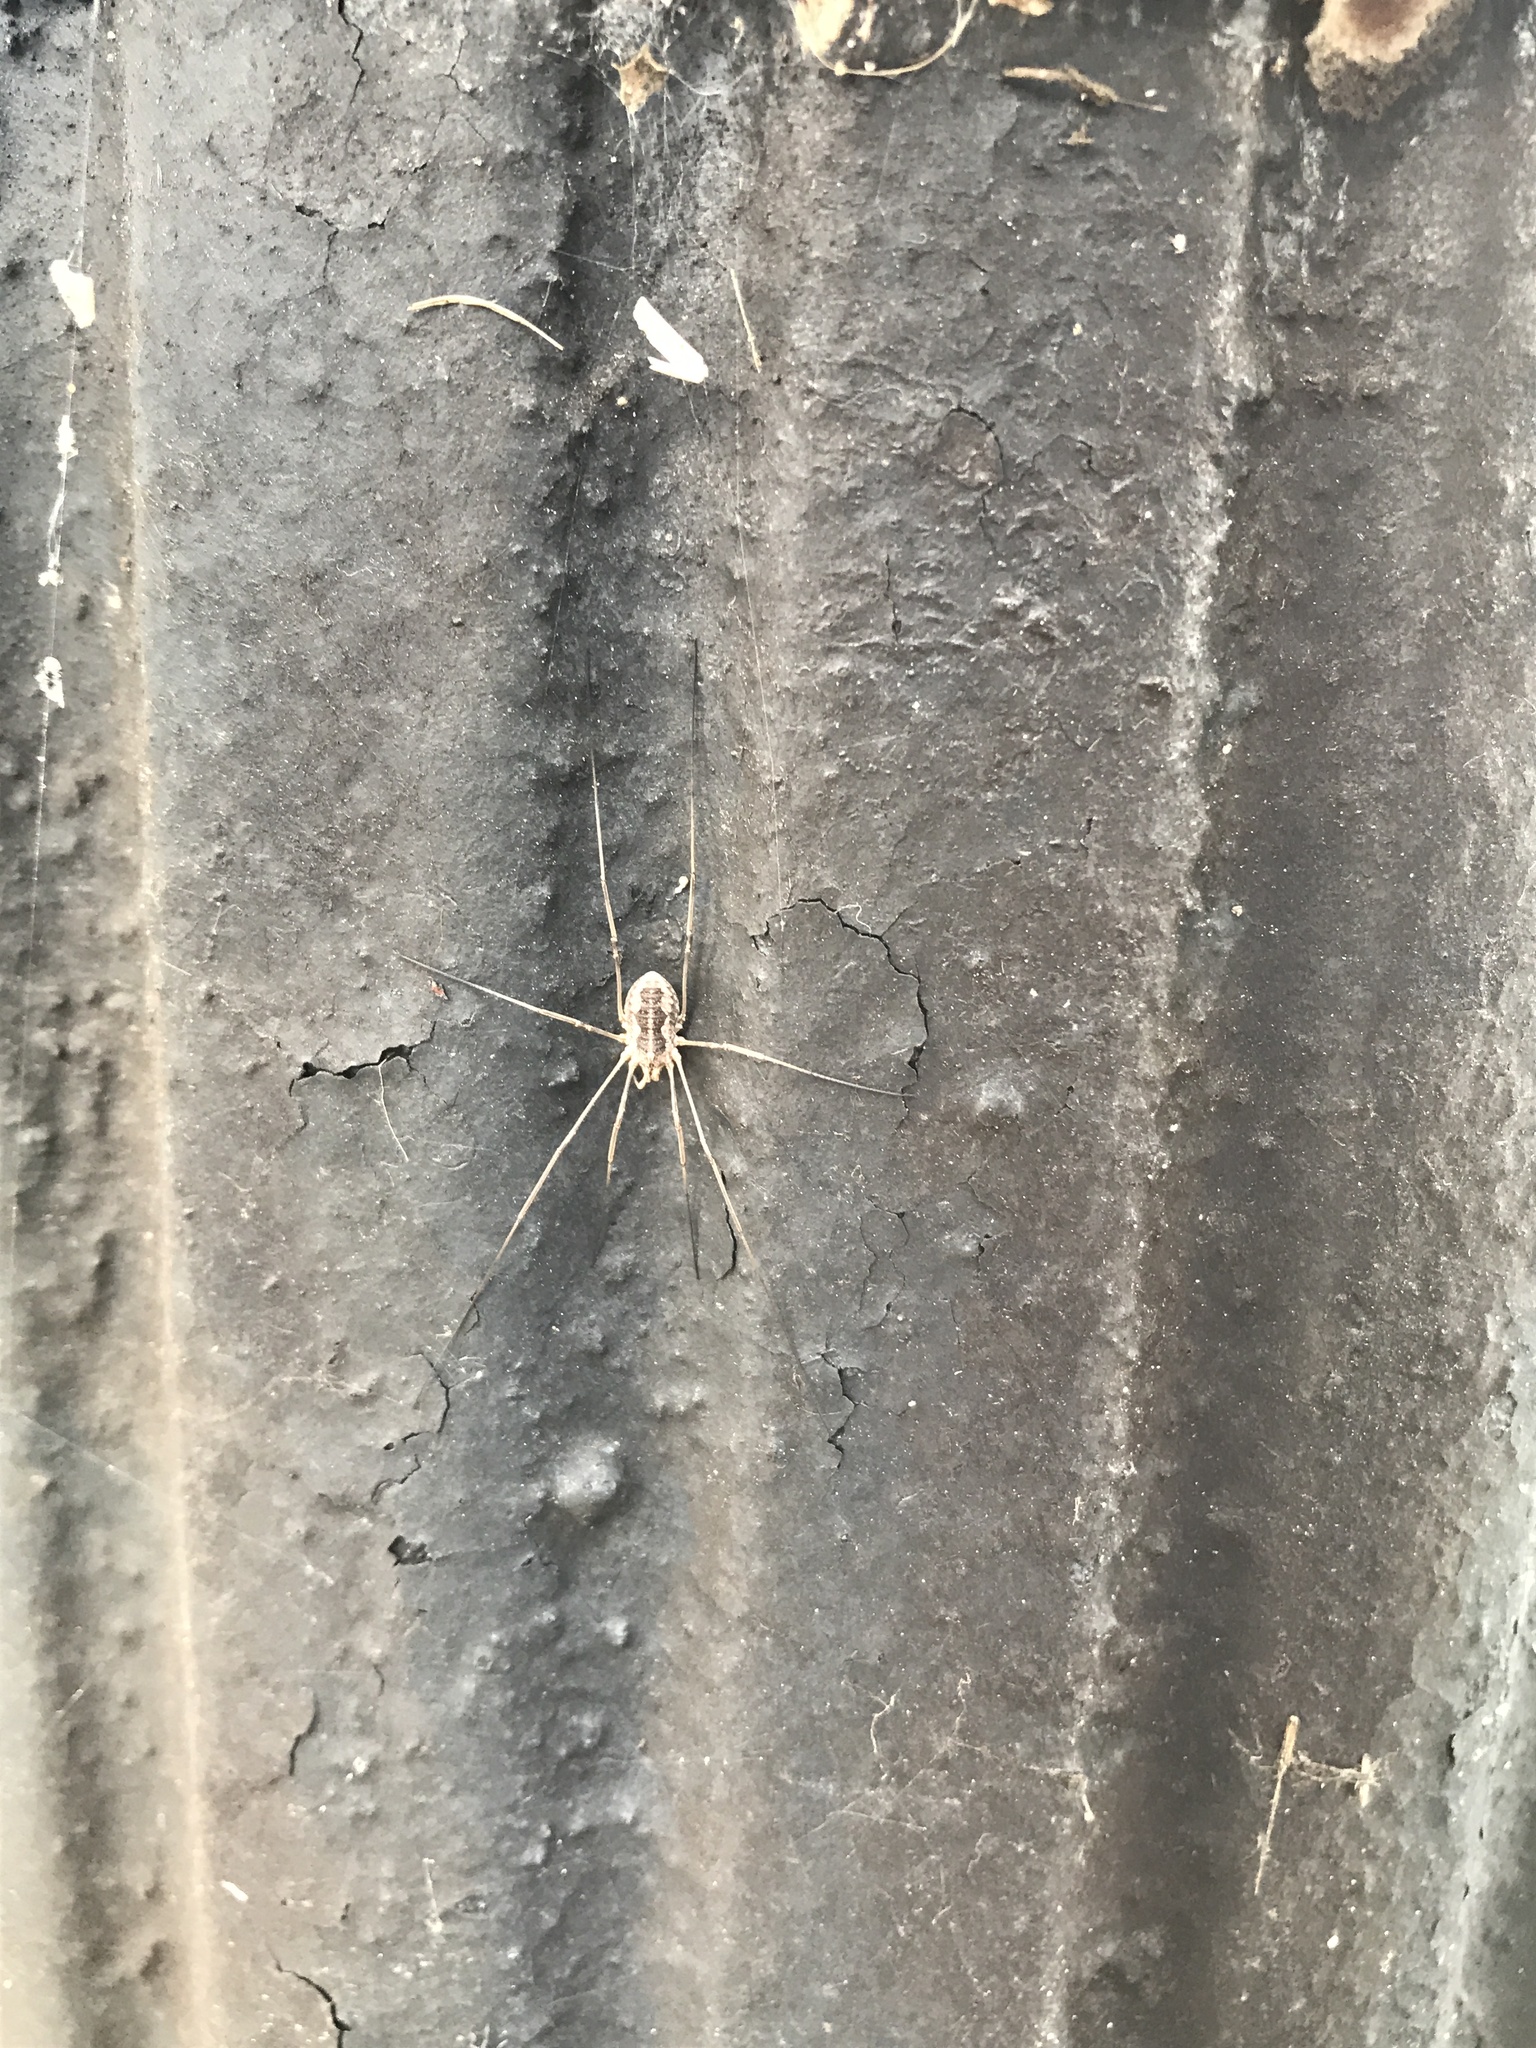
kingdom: Animalia
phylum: Arthropoda
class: Arachnida
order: Opiliones
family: Phalangiidae
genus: Phalangium
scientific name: Phalangium opilio
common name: Daddy longleg
